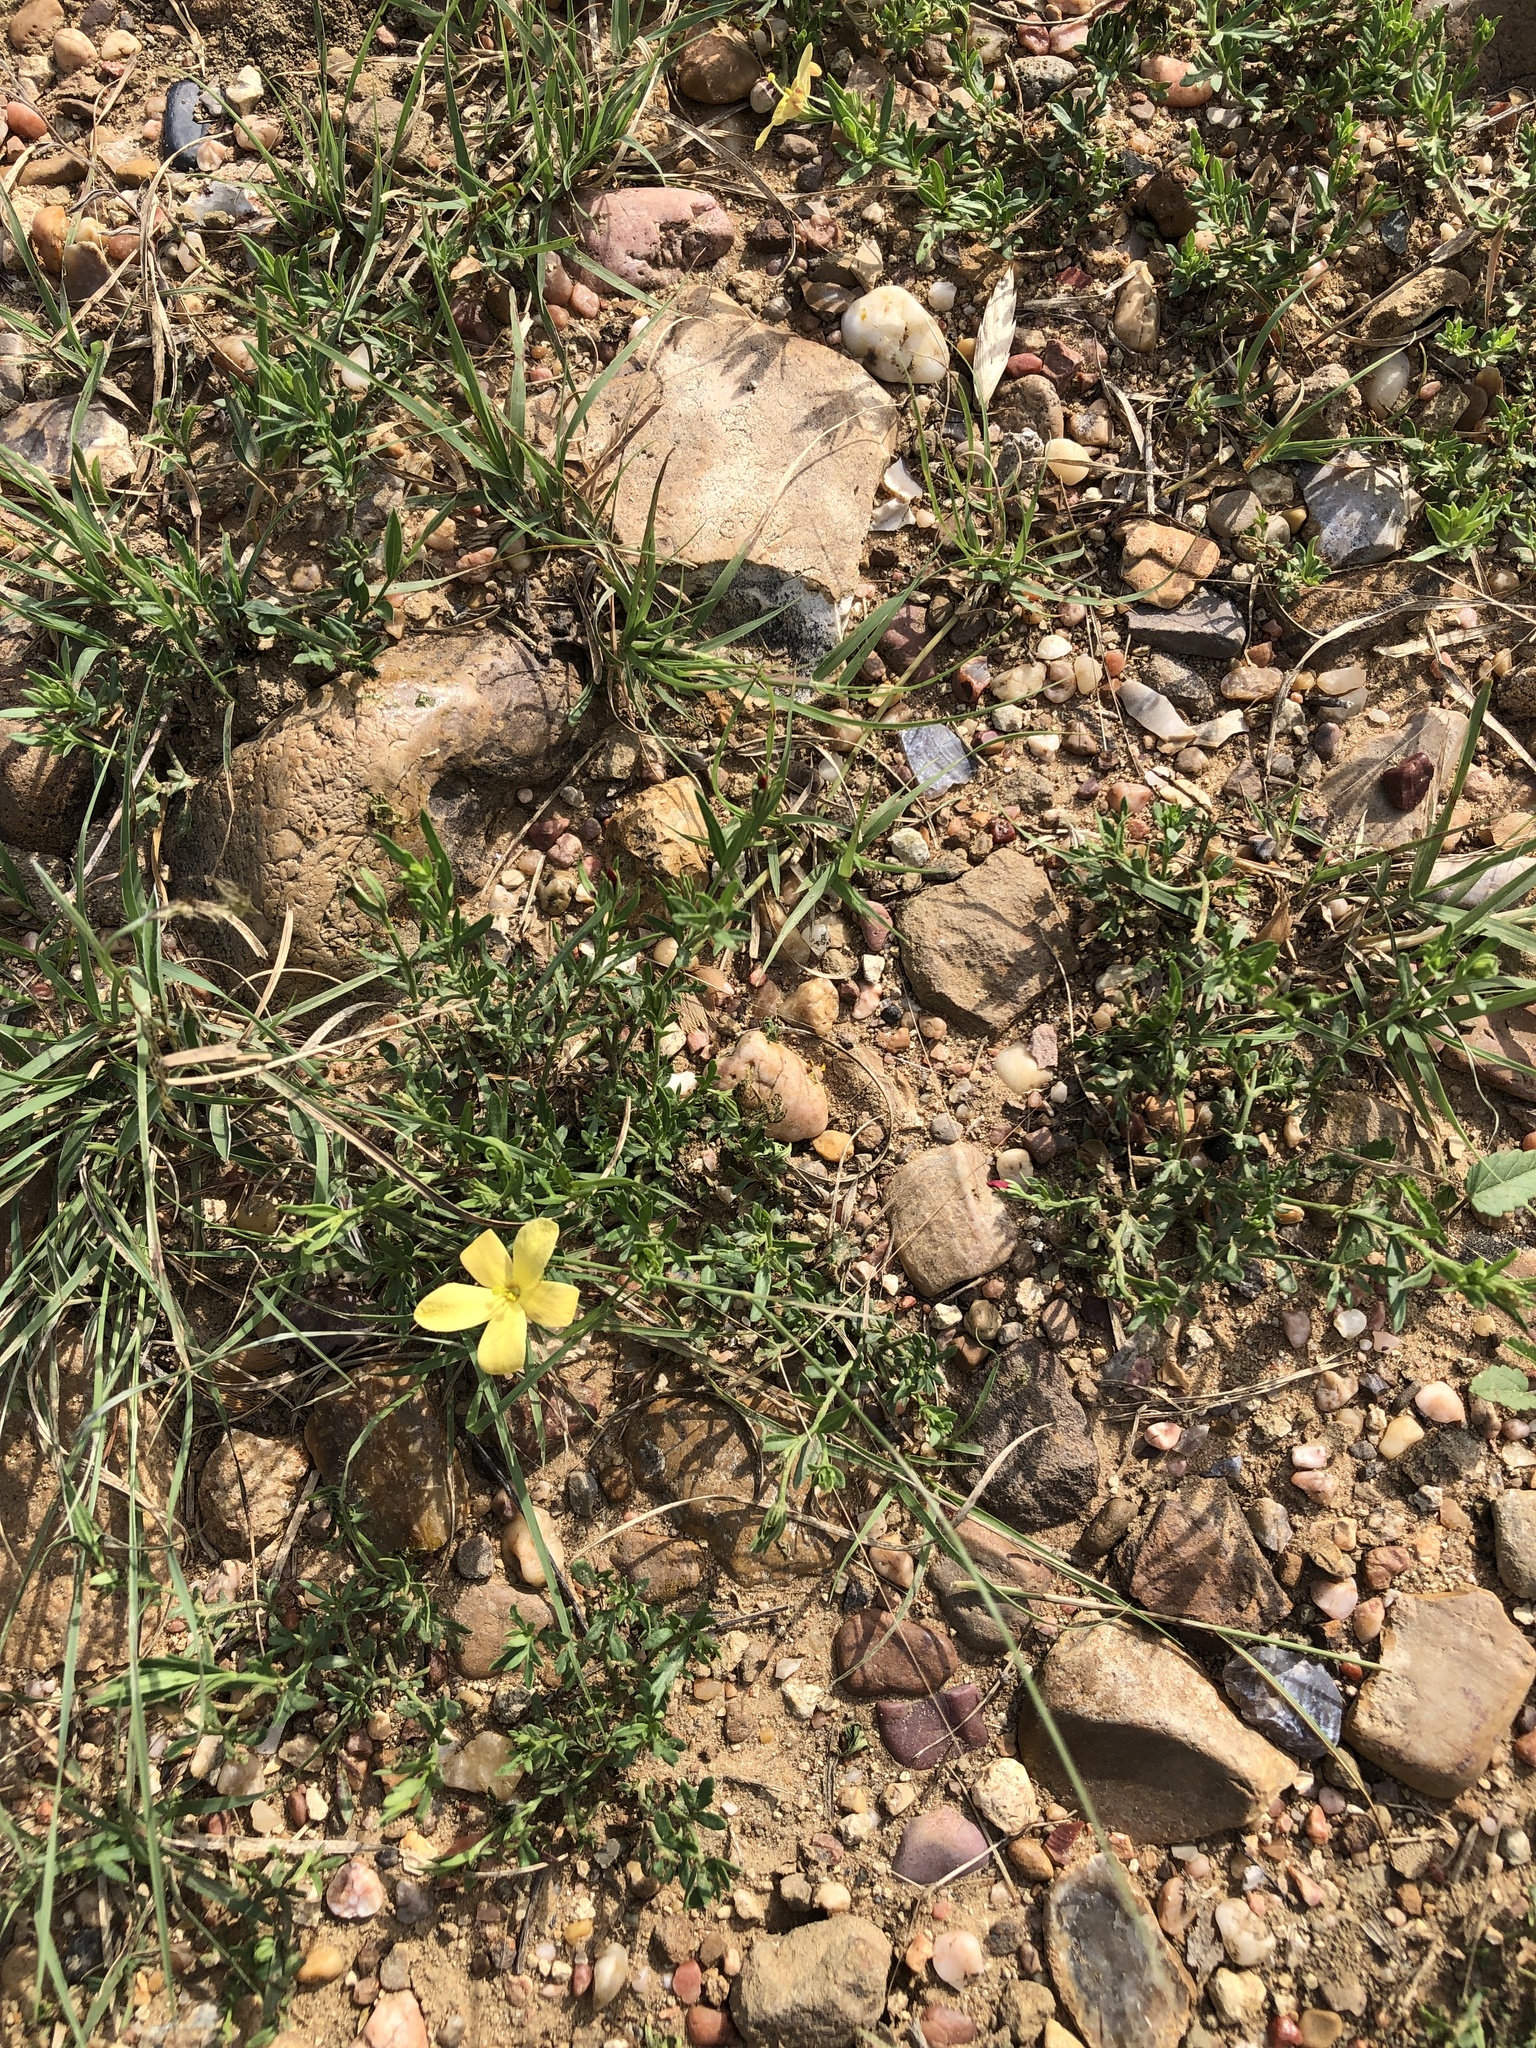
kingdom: Plantae
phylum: Tracheophyta
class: Magnoliopsida
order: Lamiales
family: Oleaceae
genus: Menodora
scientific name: Menodora heterophylla
